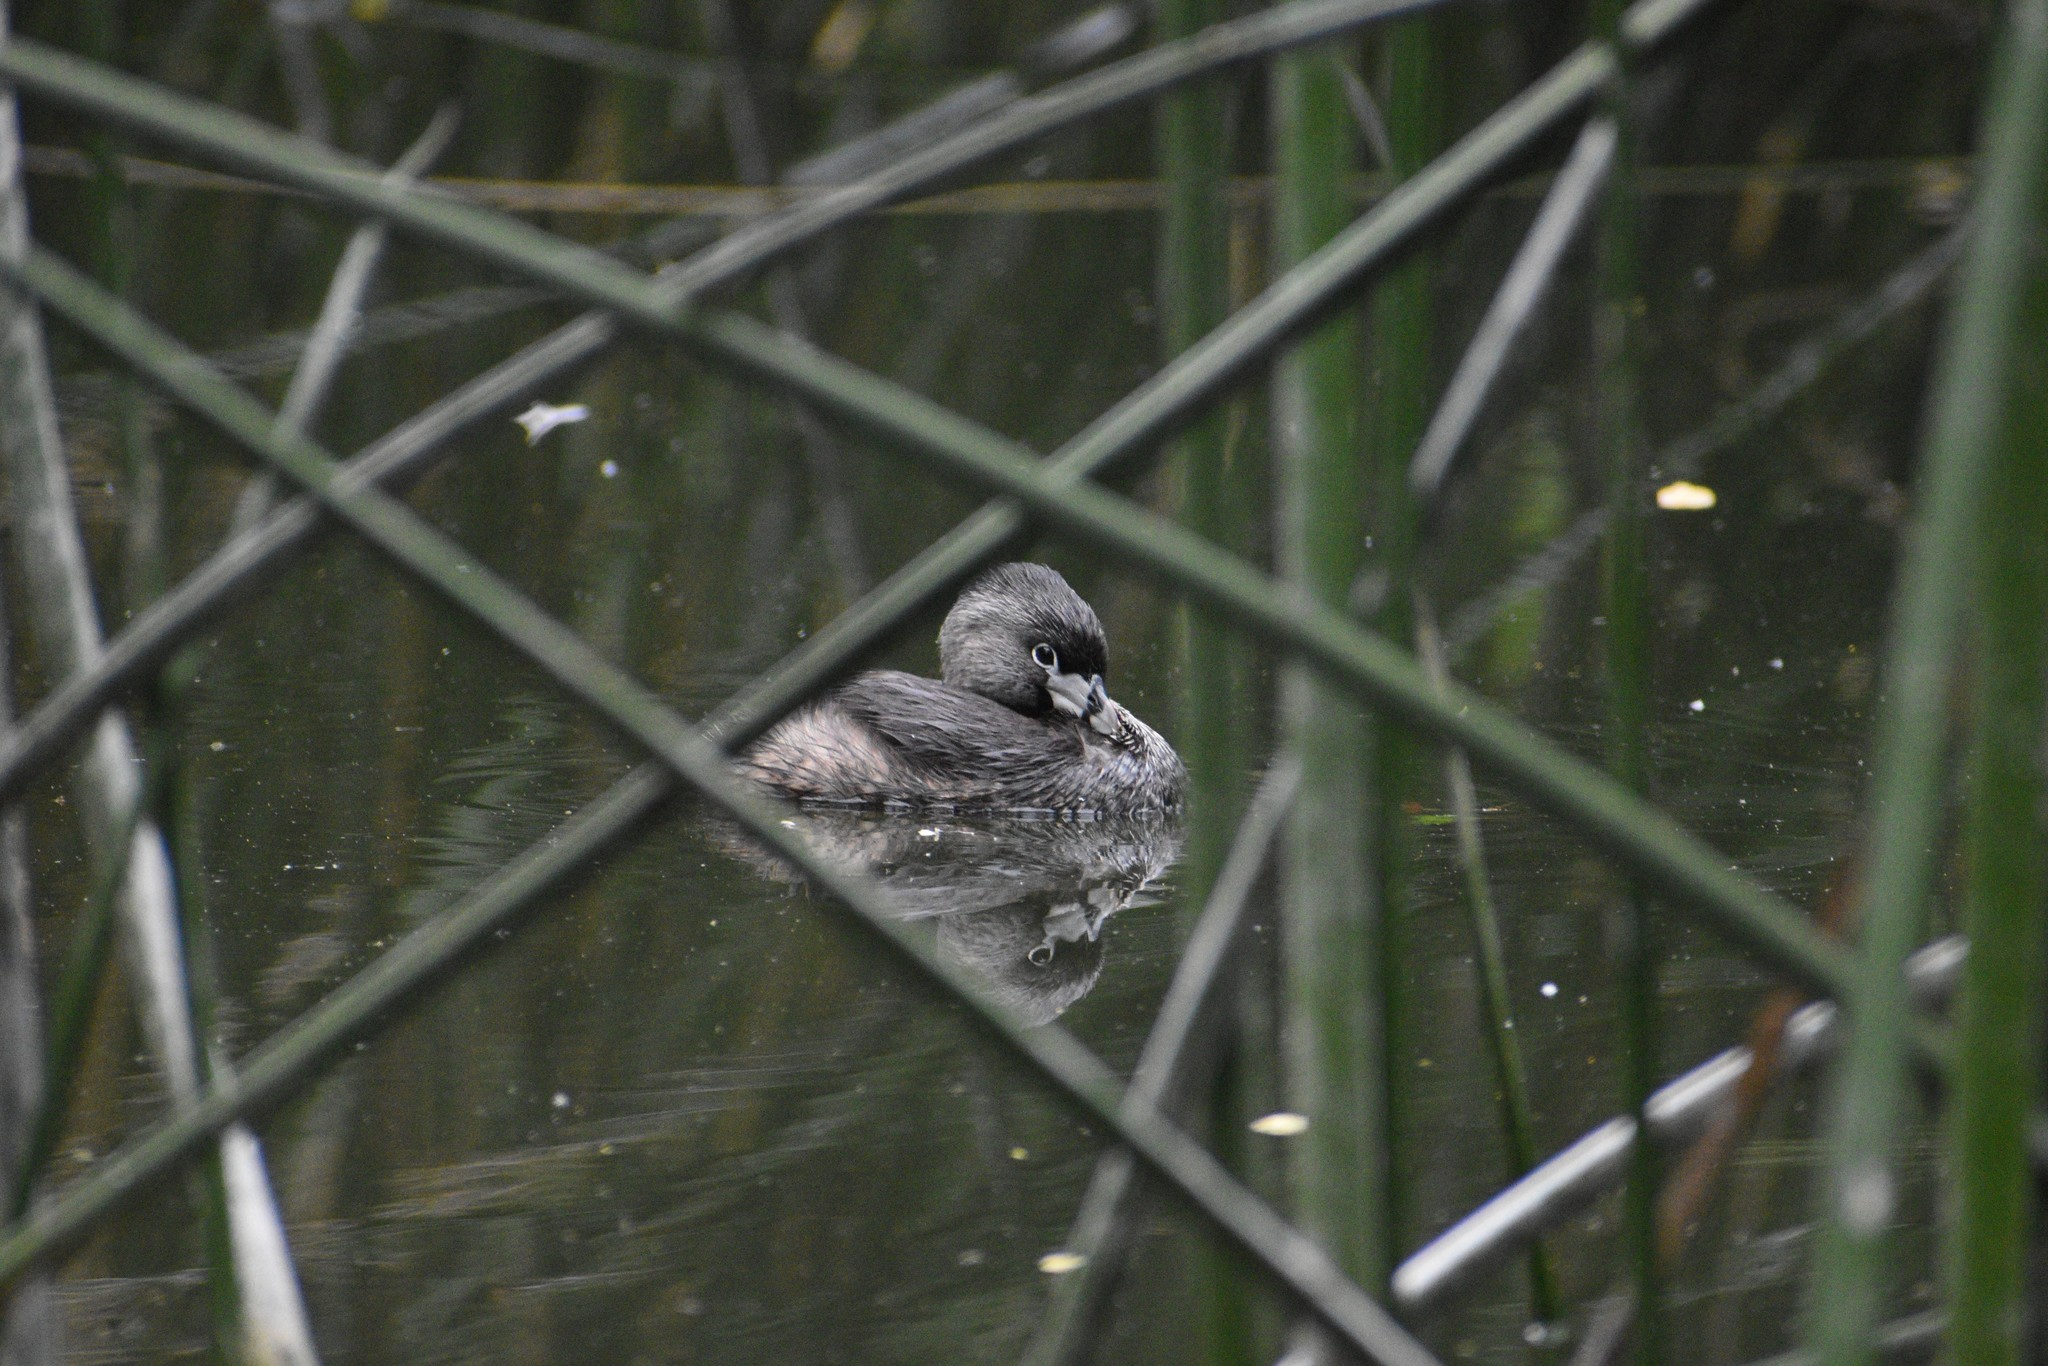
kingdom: Animalia
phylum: Chordata
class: Aves
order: Podicipediformes
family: Podicipedidae
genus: Podilymbus
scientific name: Podilymbus podiceps
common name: Pied-billed grebe
